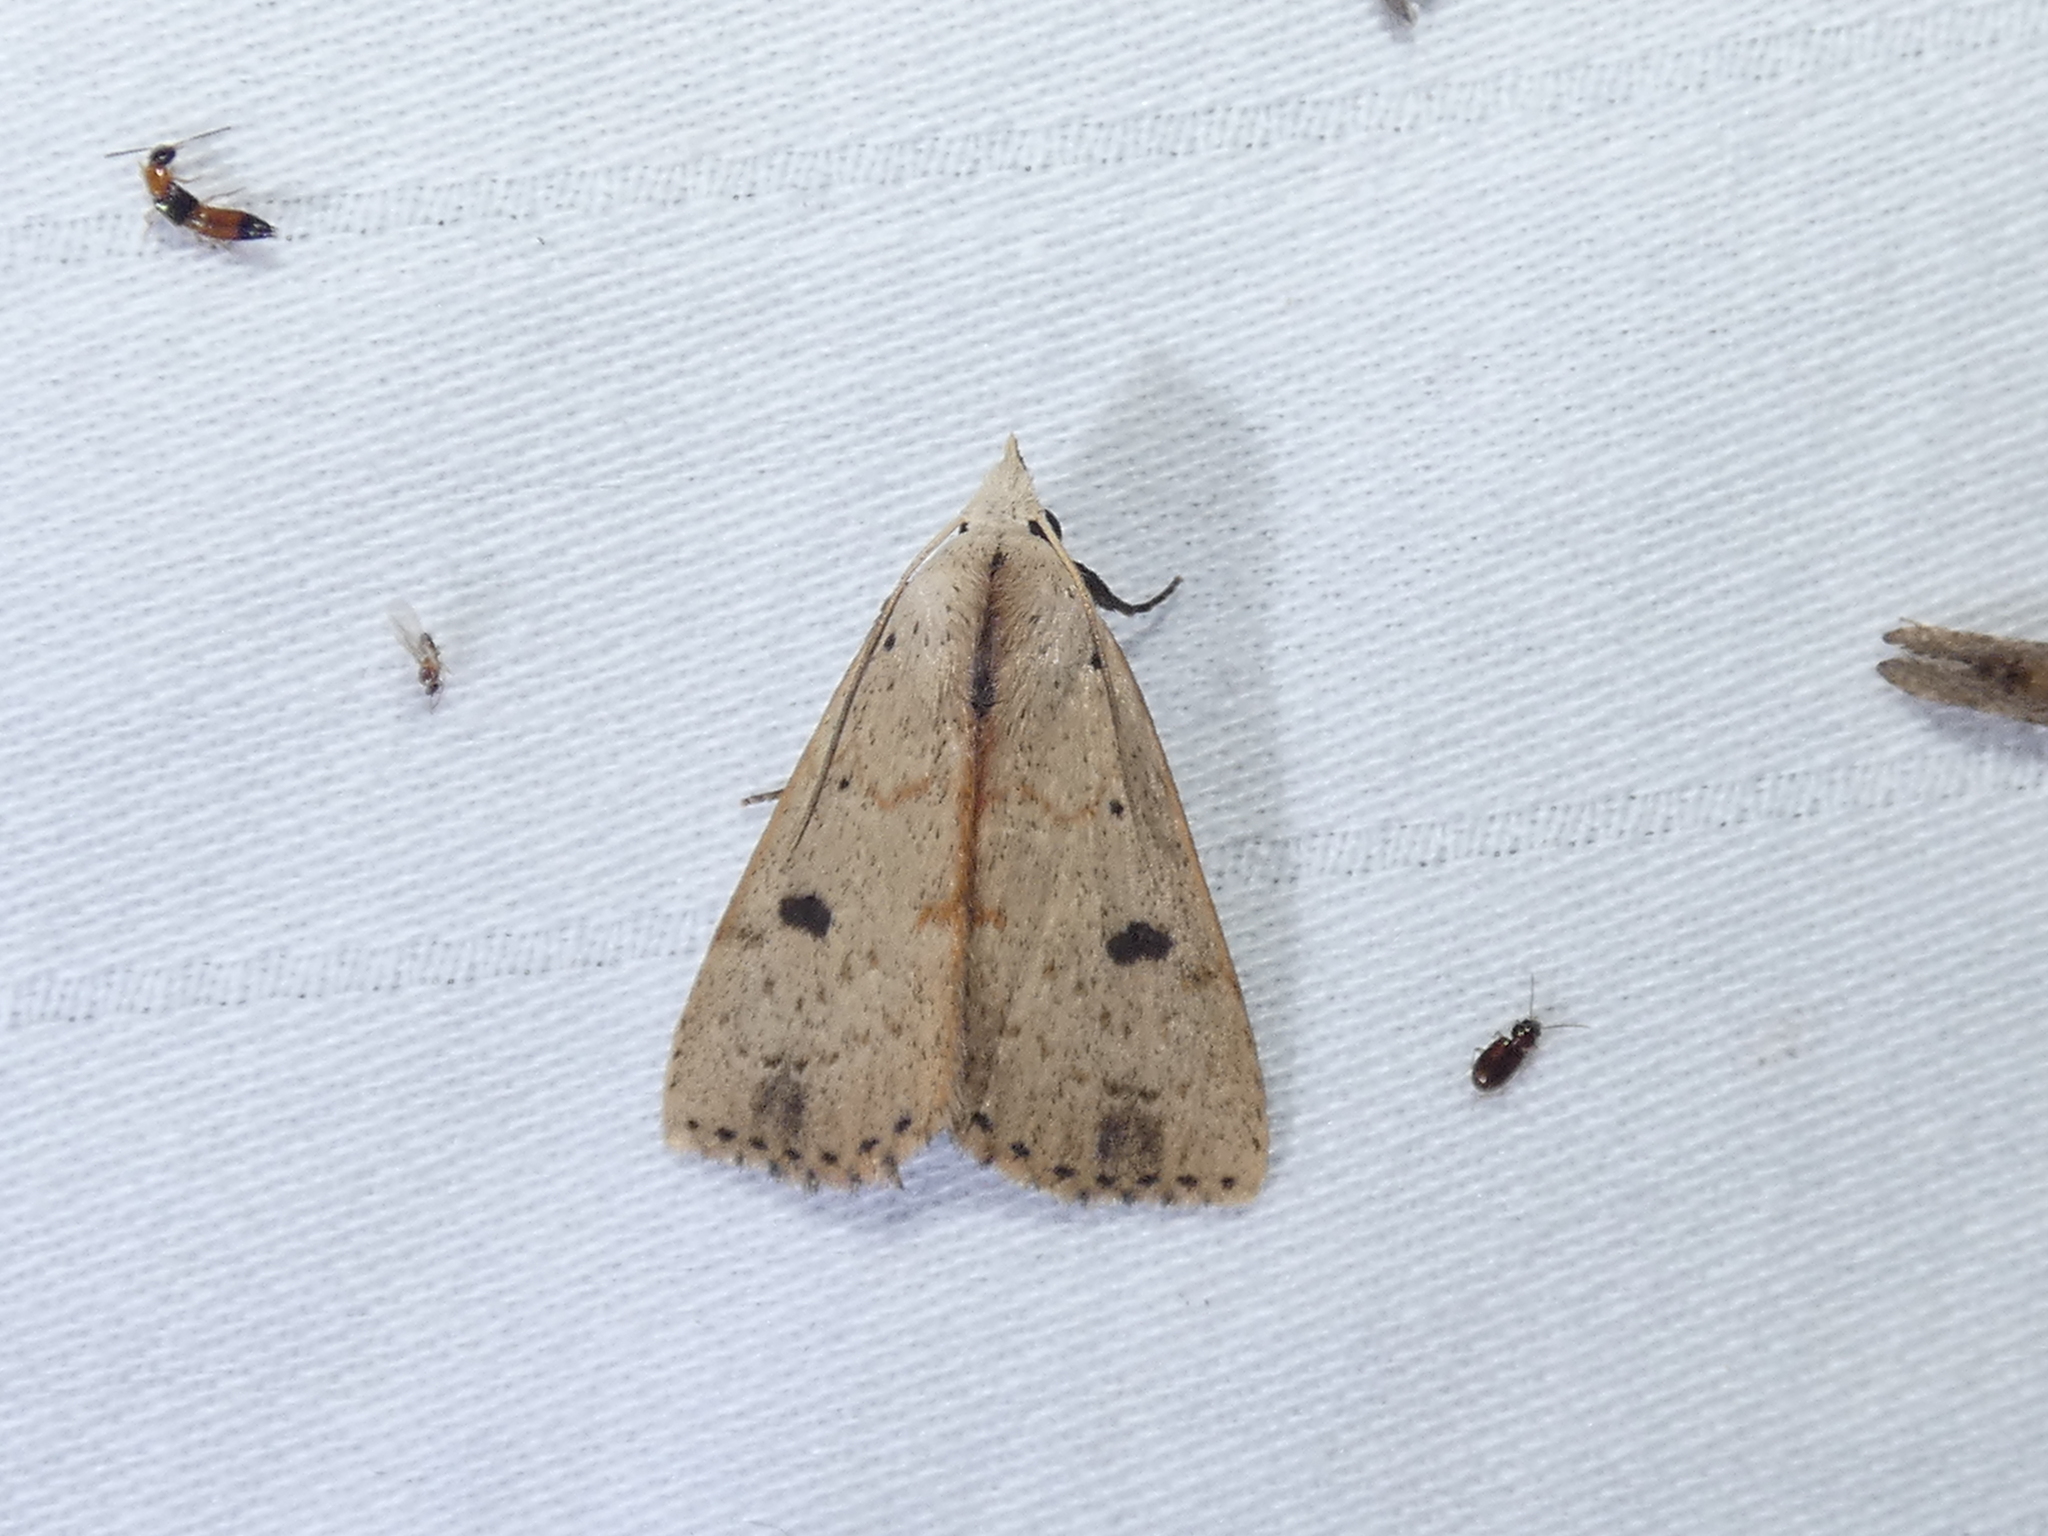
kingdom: Animalia
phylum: Arthropoda
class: Insecta
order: Lepidoptera
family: Erebidae
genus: Scolecocampa
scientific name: Scolecocampa liburna
